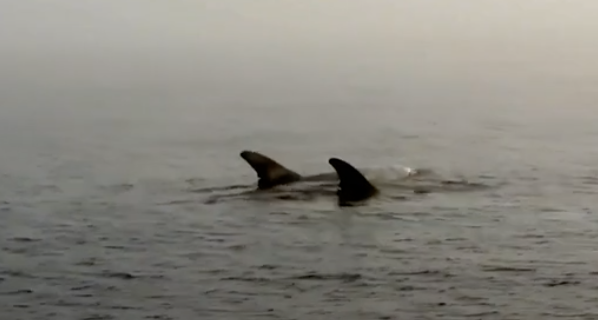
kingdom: Animalia
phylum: Chordata
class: Mammalia
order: Cetacea
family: Delphinidae
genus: Grampus
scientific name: Grampus griseus
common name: Risso's dolphin
